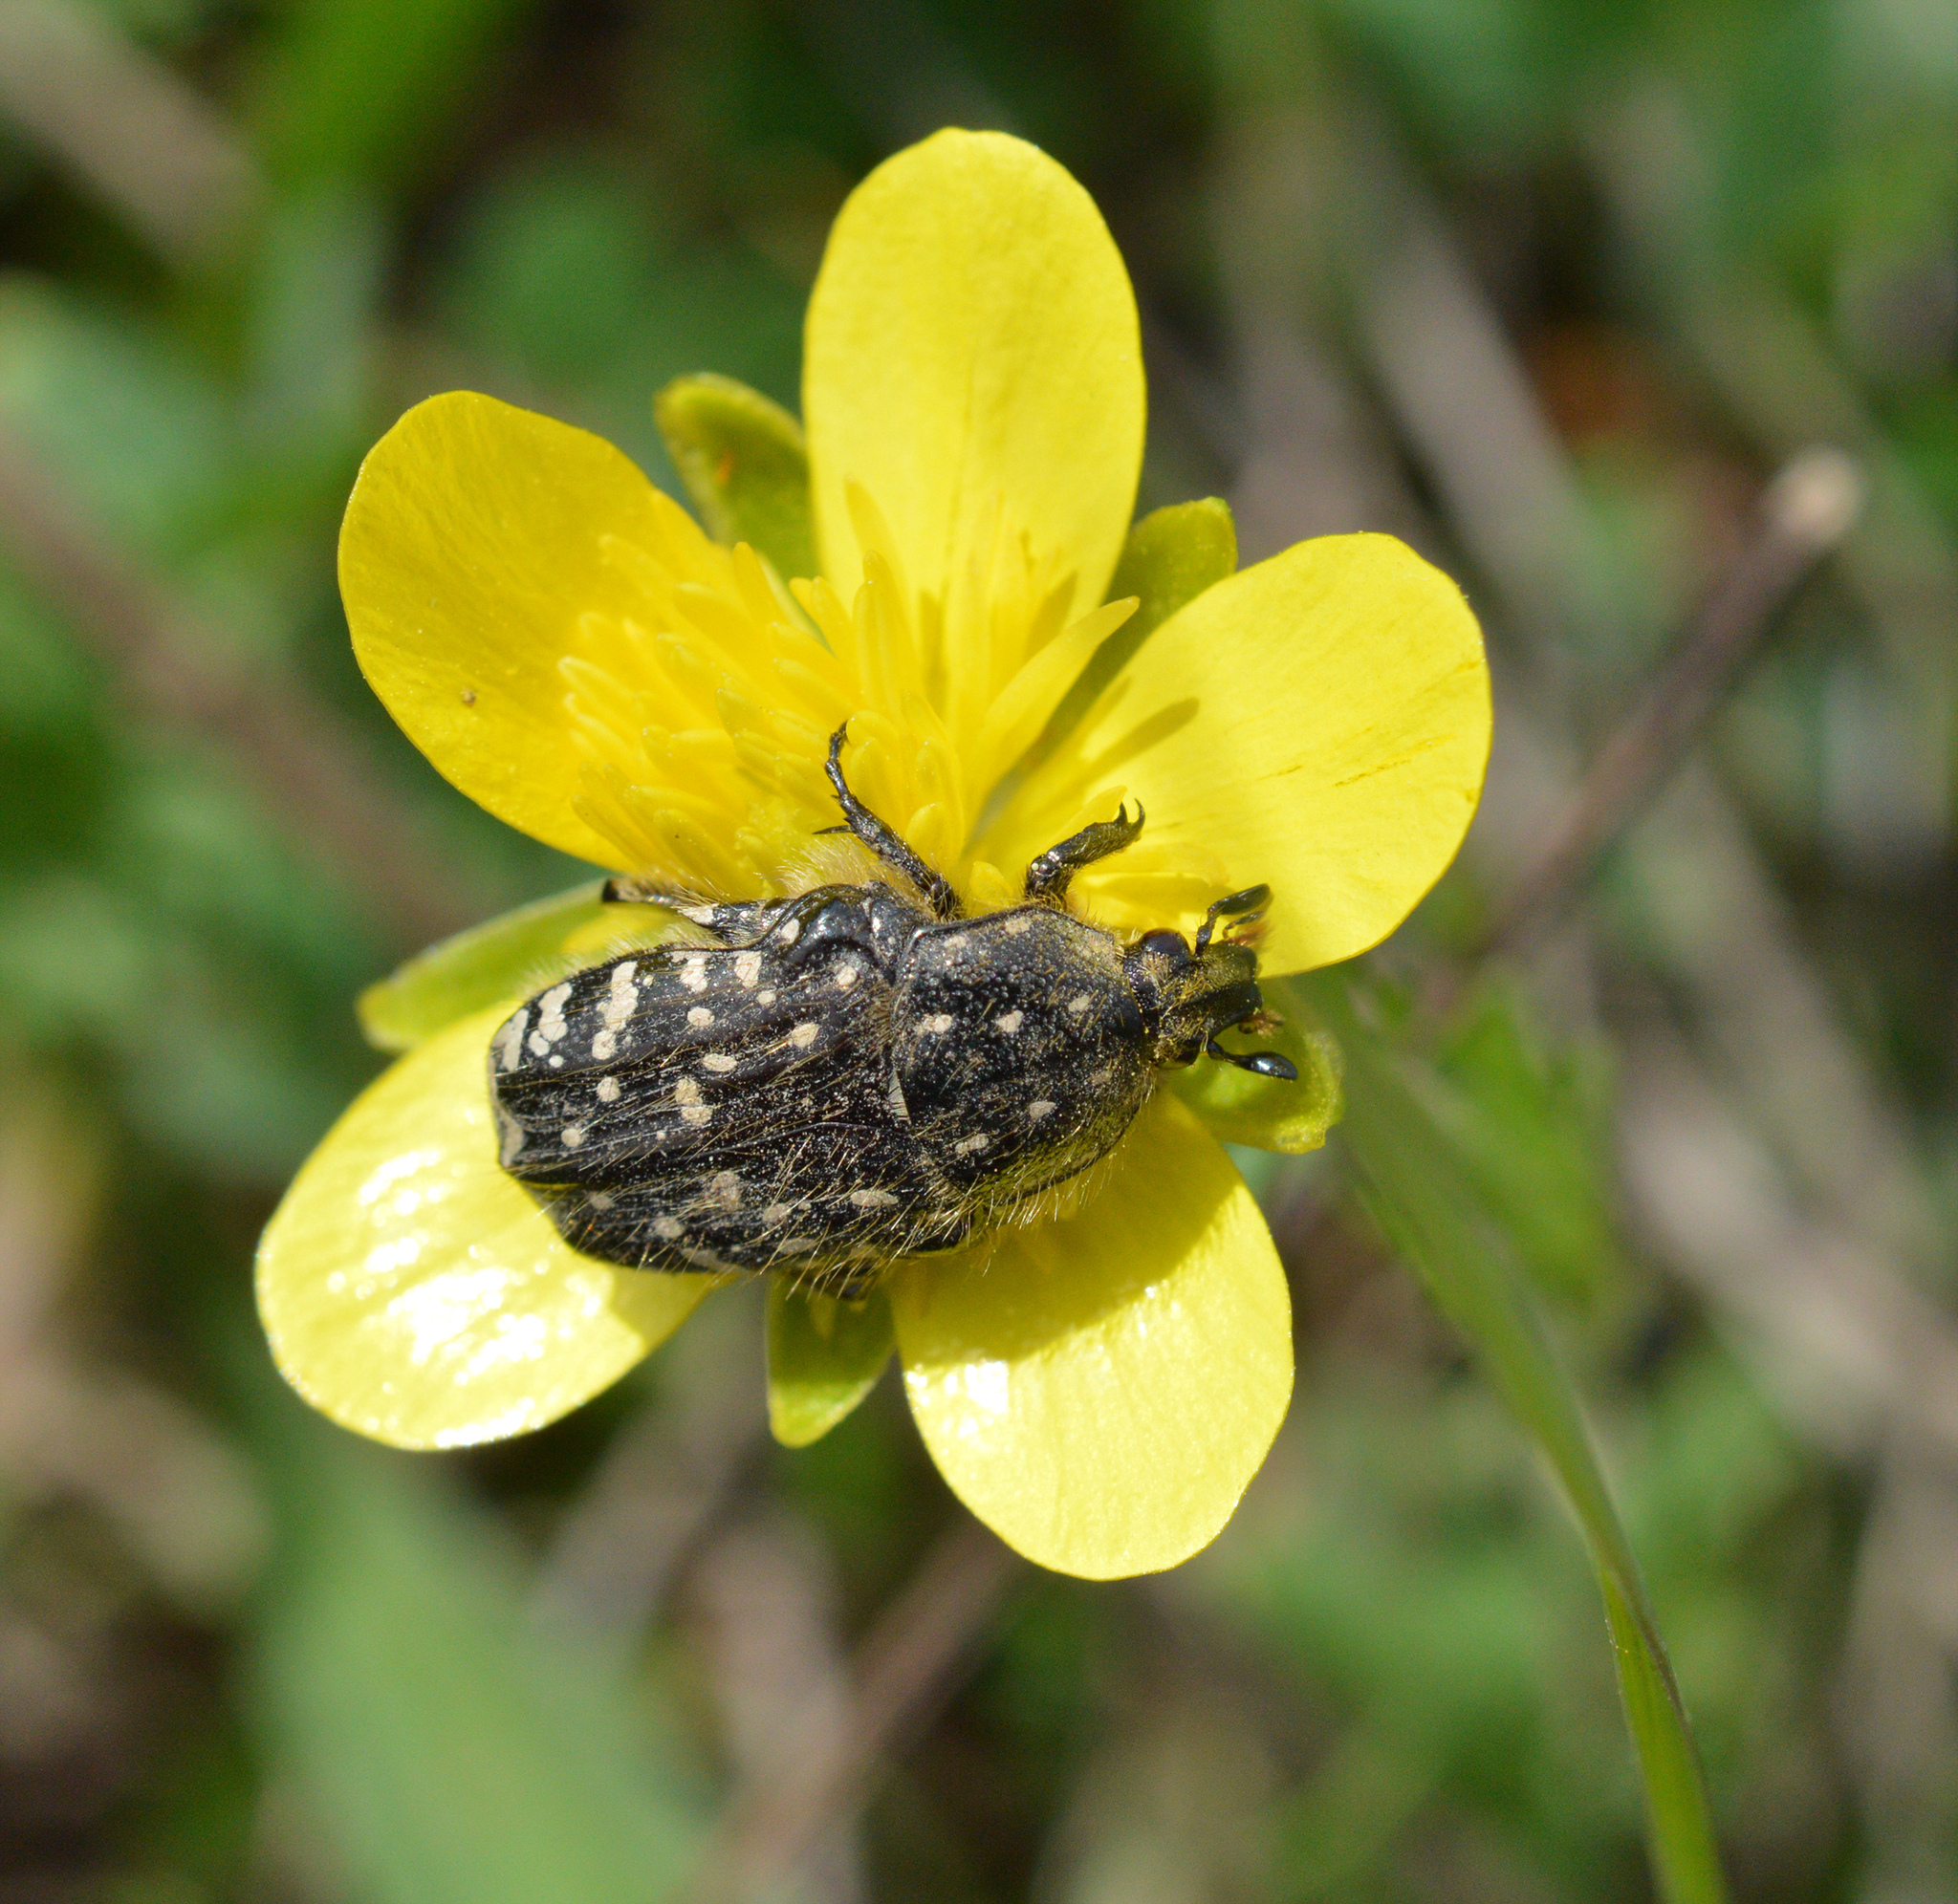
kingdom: Animalia
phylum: Arthropoda
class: Insecta
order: Coleoptera
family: Scarabaeidae
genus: Oxythyrea
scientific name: Oxythyrea funesta
